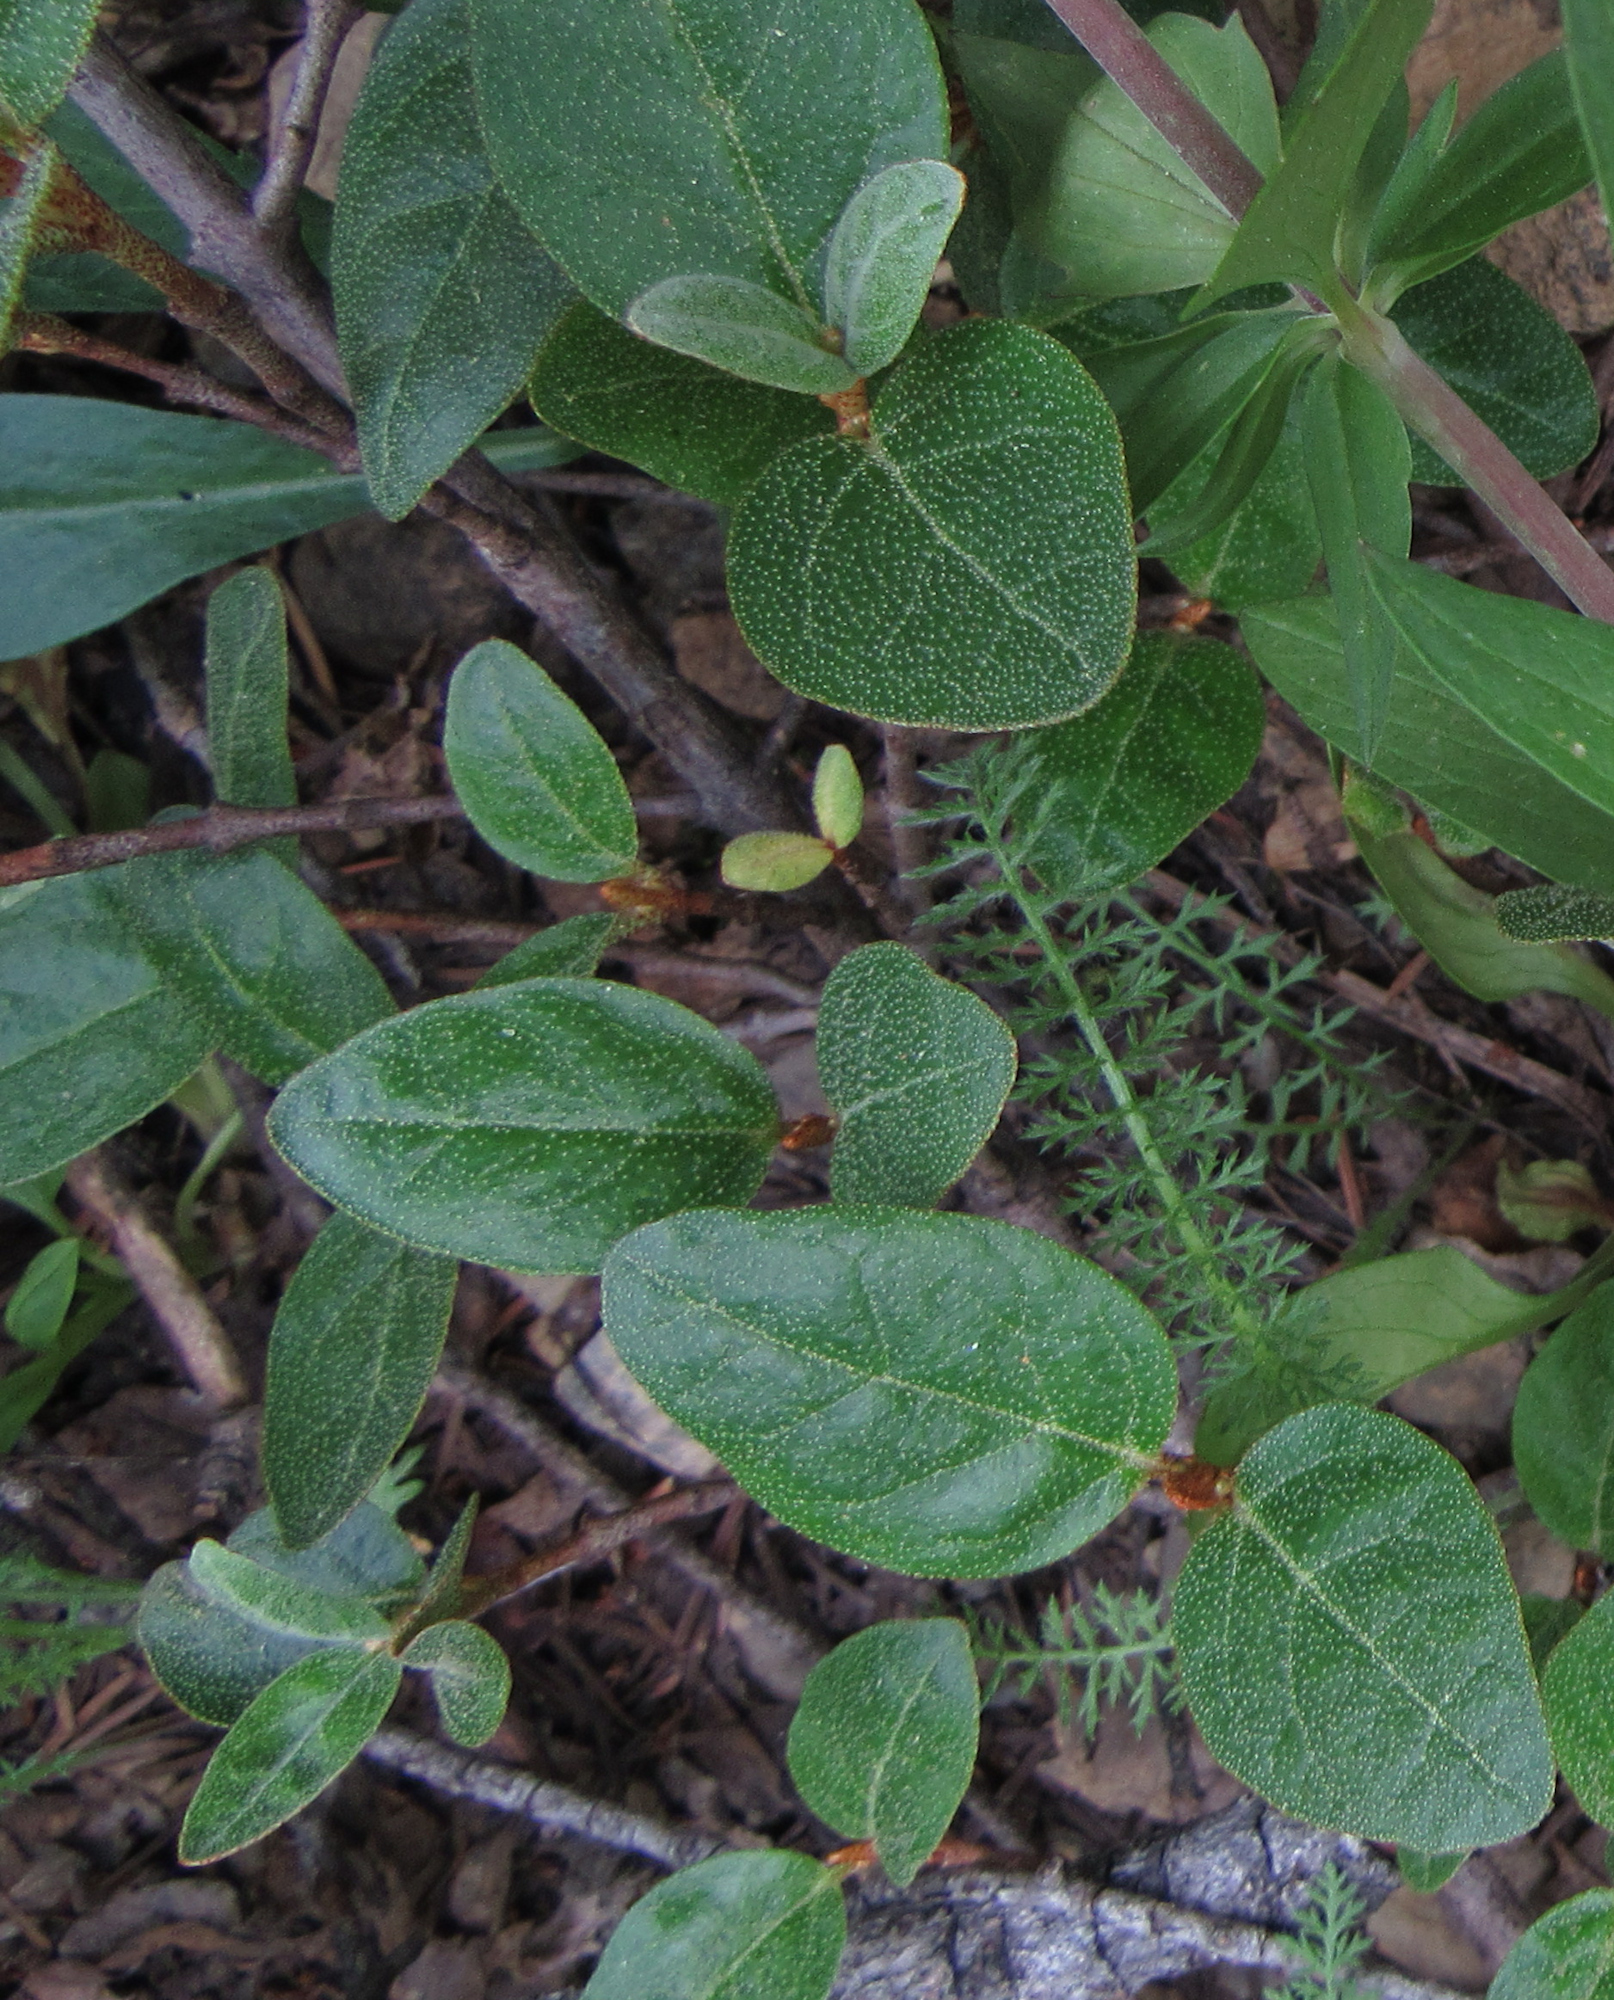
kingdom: Plantae
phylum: Tracheophyta
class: Magnoliopsida
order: Rosales
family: Elaeagnaceae
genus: Shepherdia
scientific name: Shepherdia canadensis
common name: Soapberry
